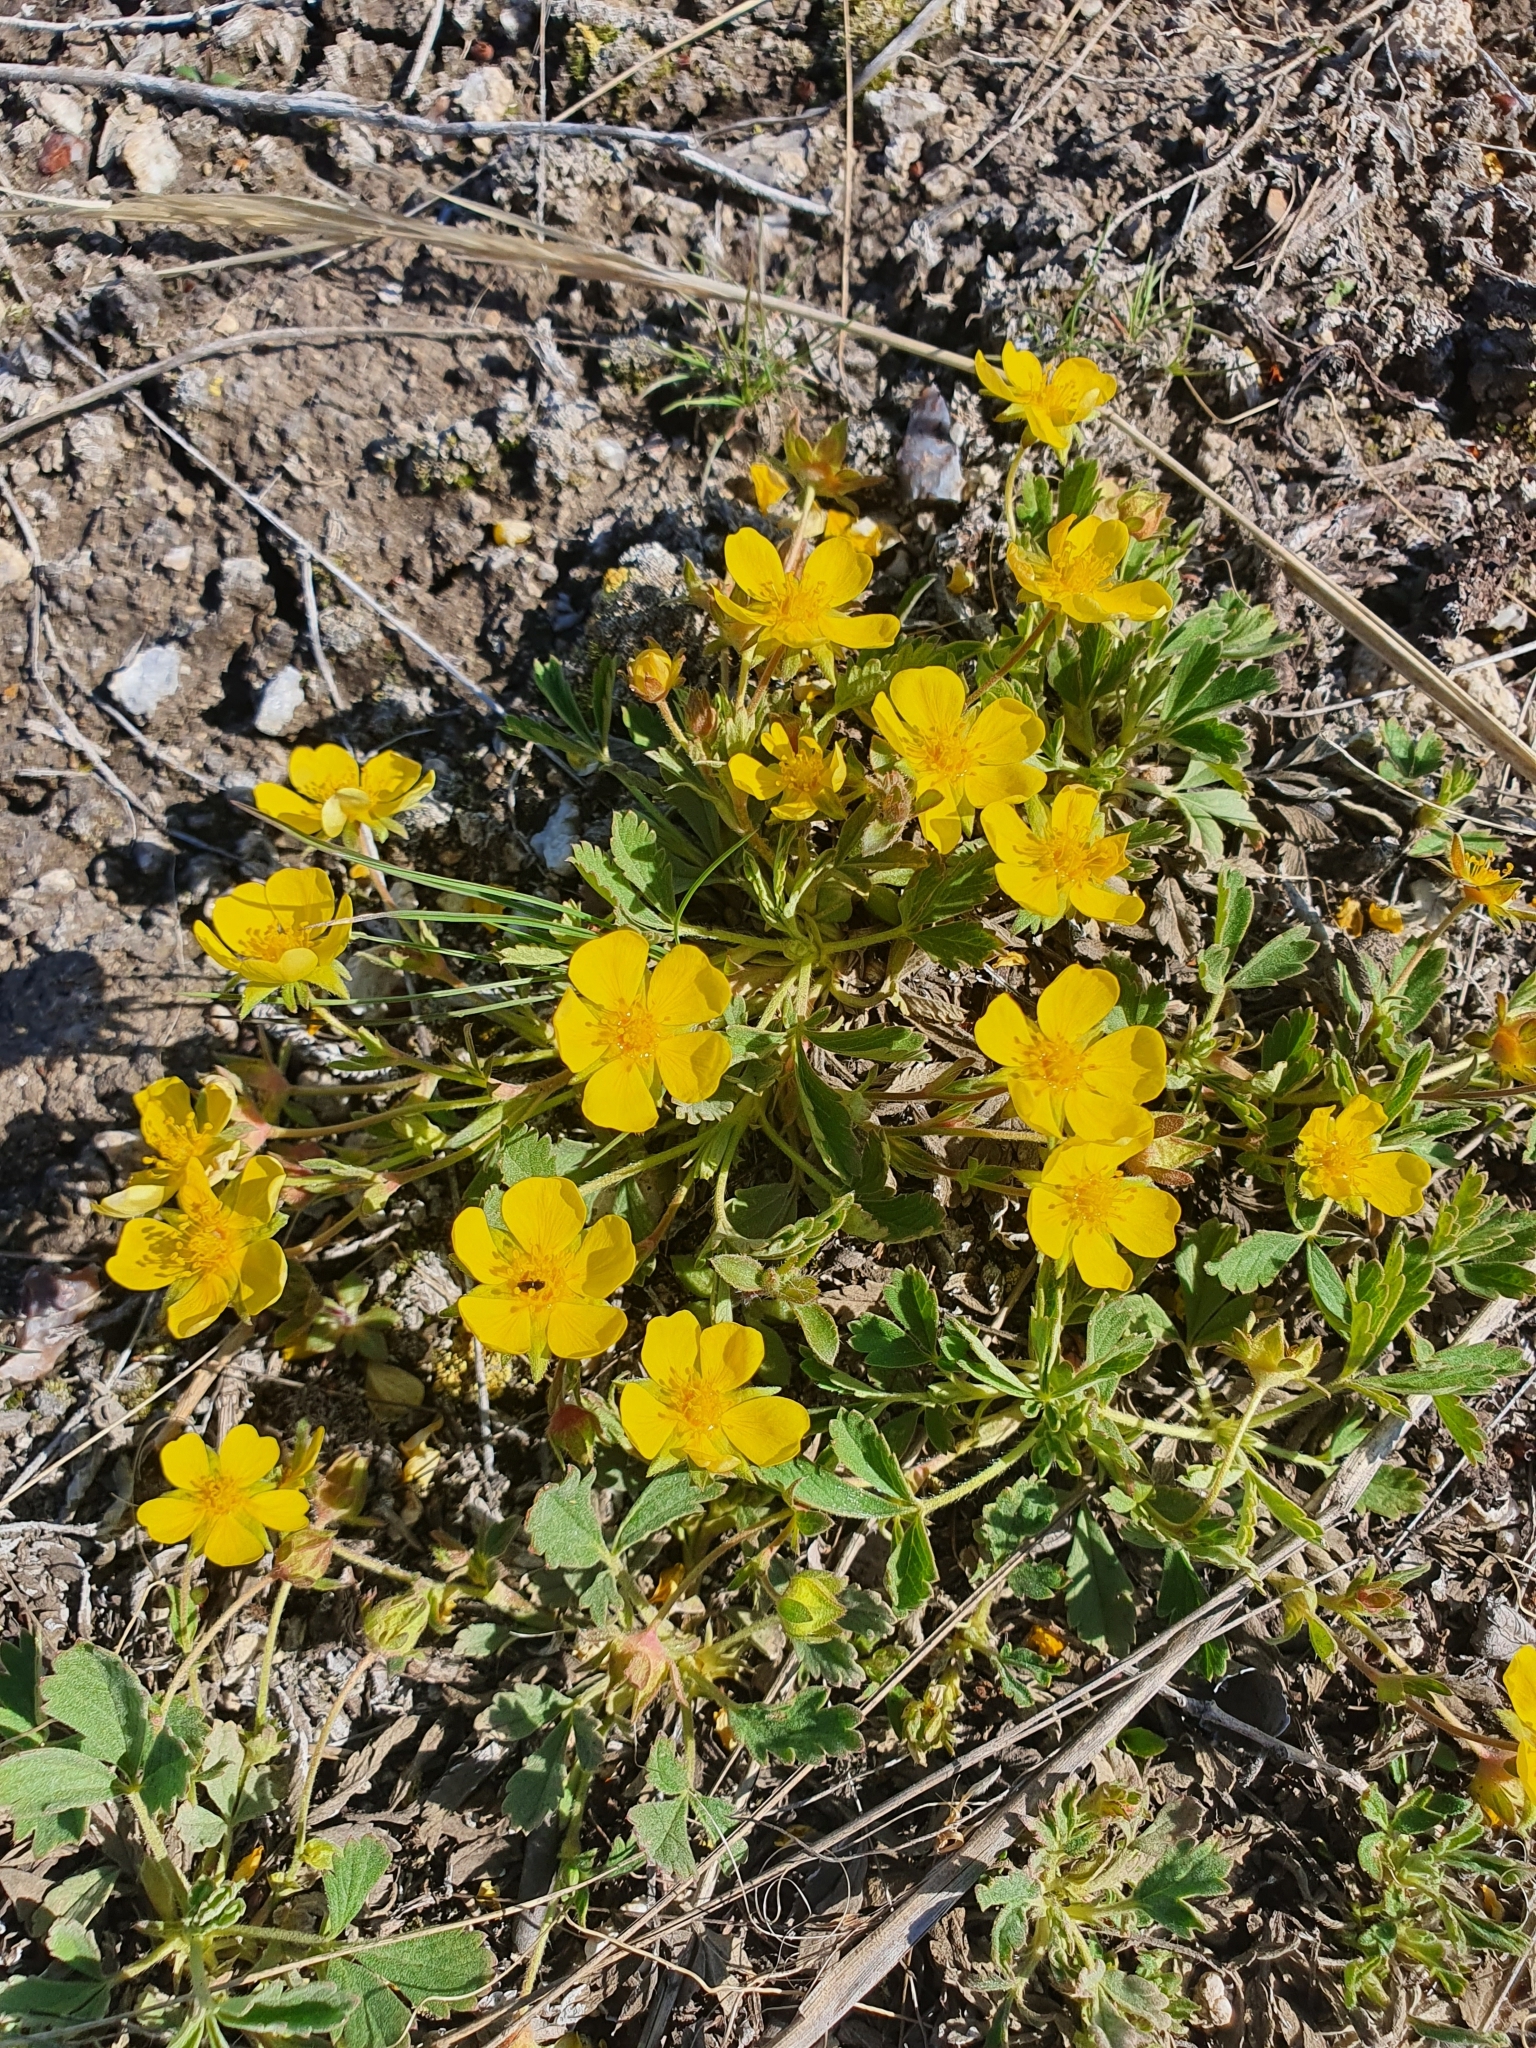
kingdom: Plantae
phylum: Tracheophyta
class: Magnoliopsida
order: Rosales
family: Rosaceae
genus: Potentilla
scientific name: Potentilla incana
